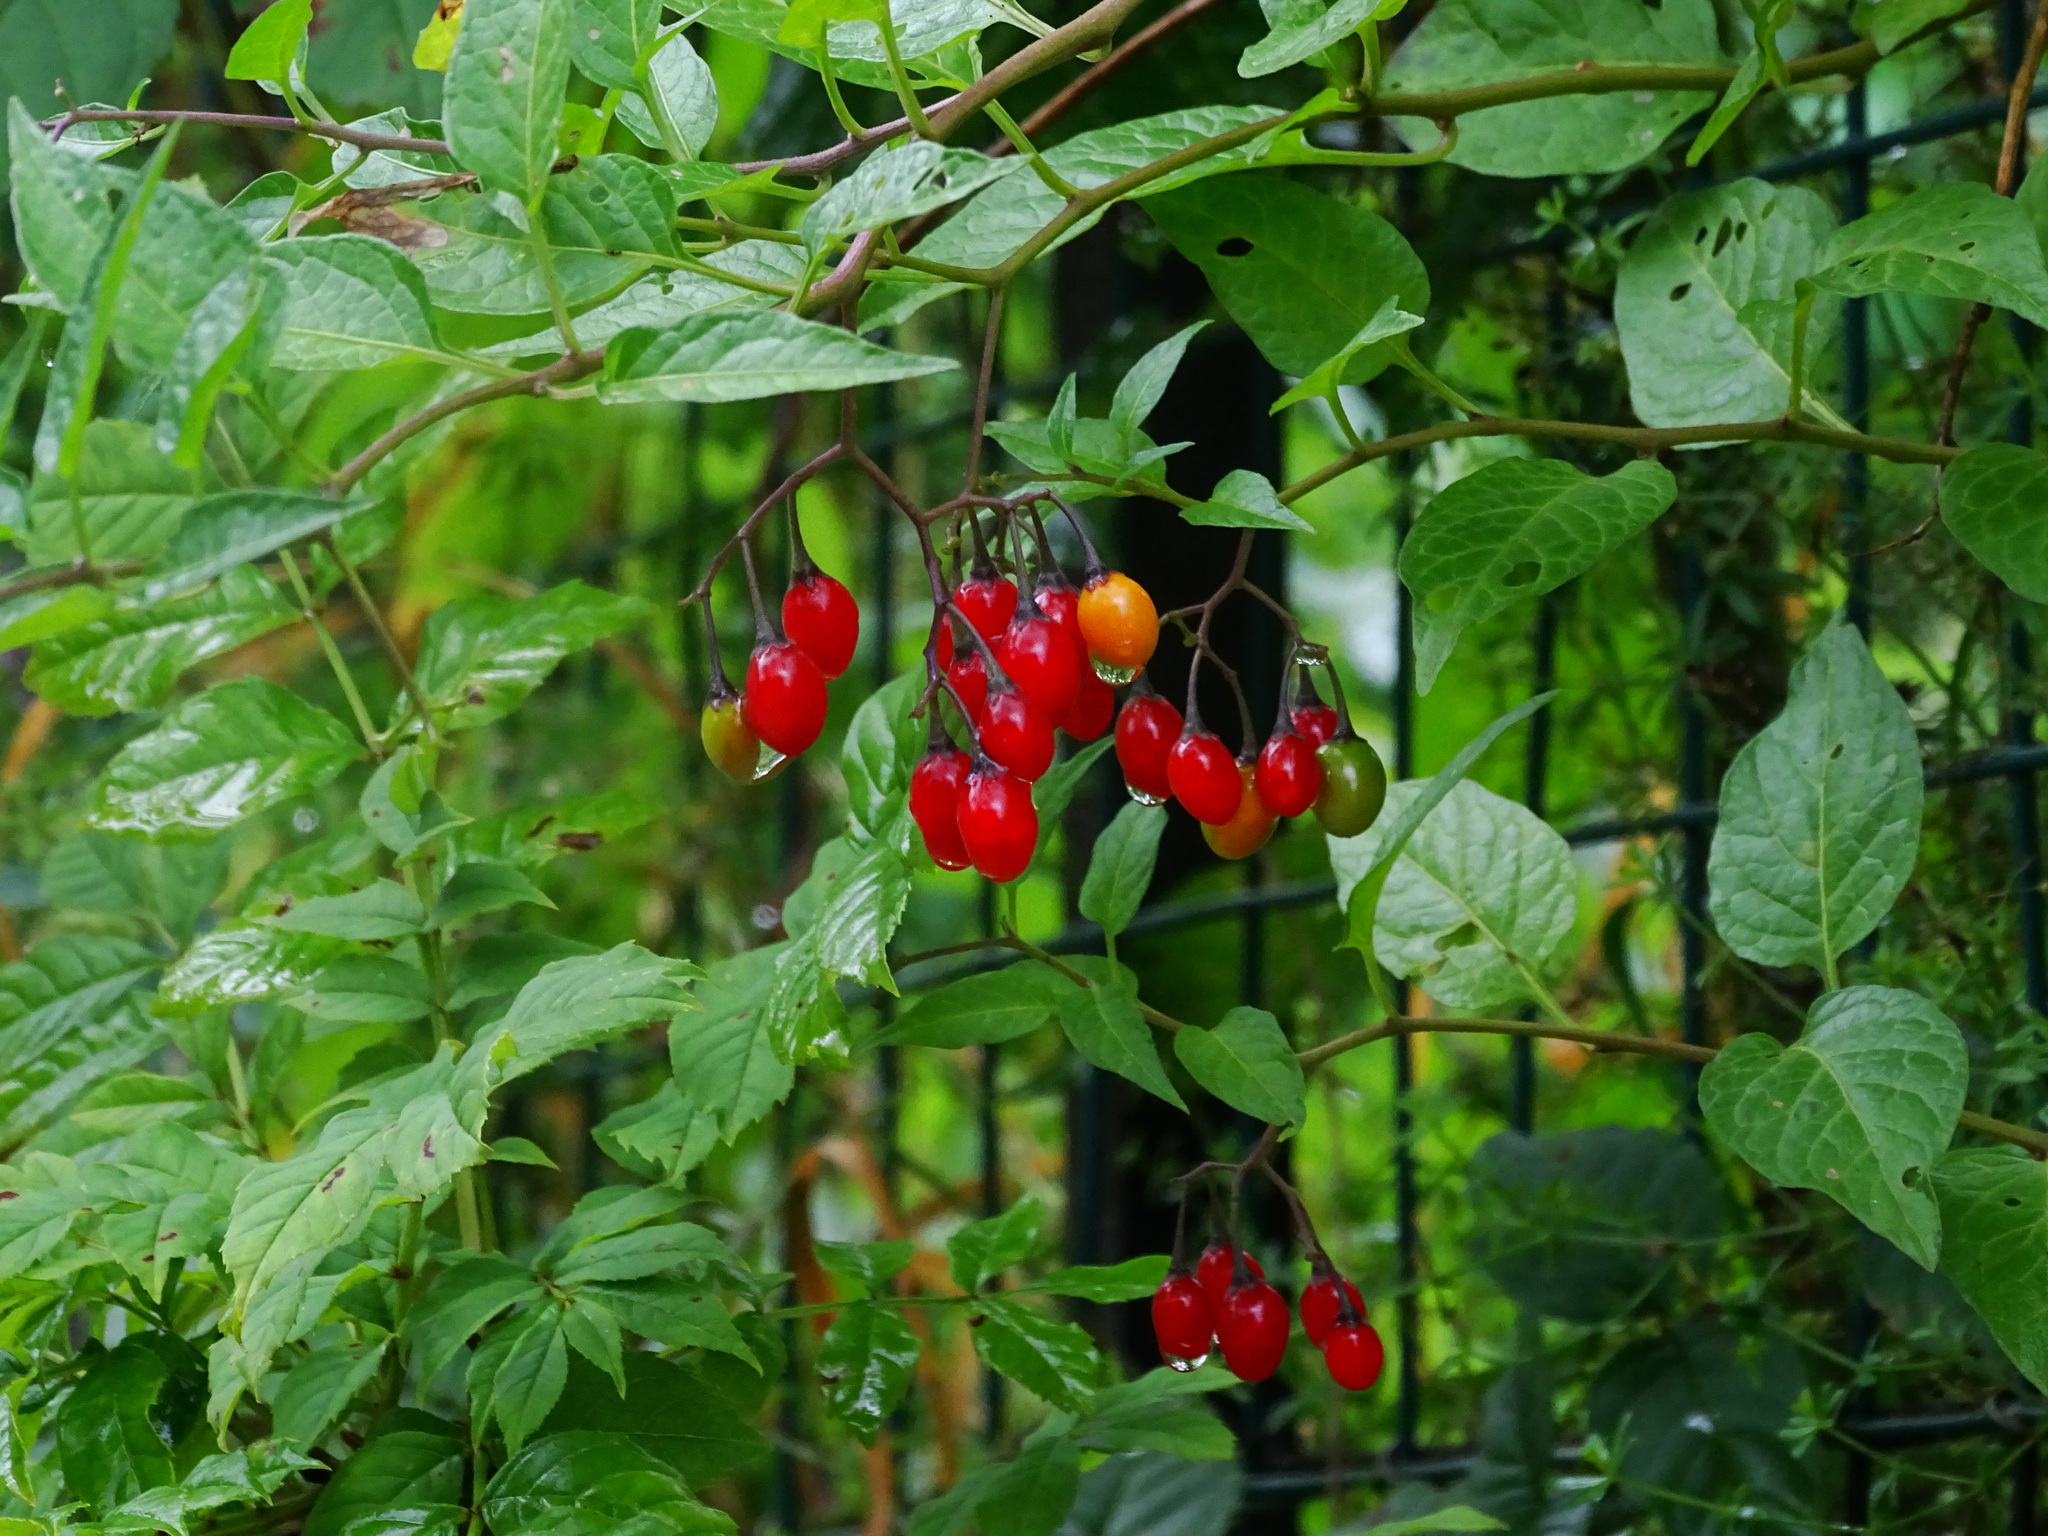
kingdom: Plantae
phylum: Tracheophyta
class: Magnoliopsida
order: Solanales
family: Solanaceae
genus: Solanum
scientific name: Solanum dulcamara
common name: Climbing nightshade
